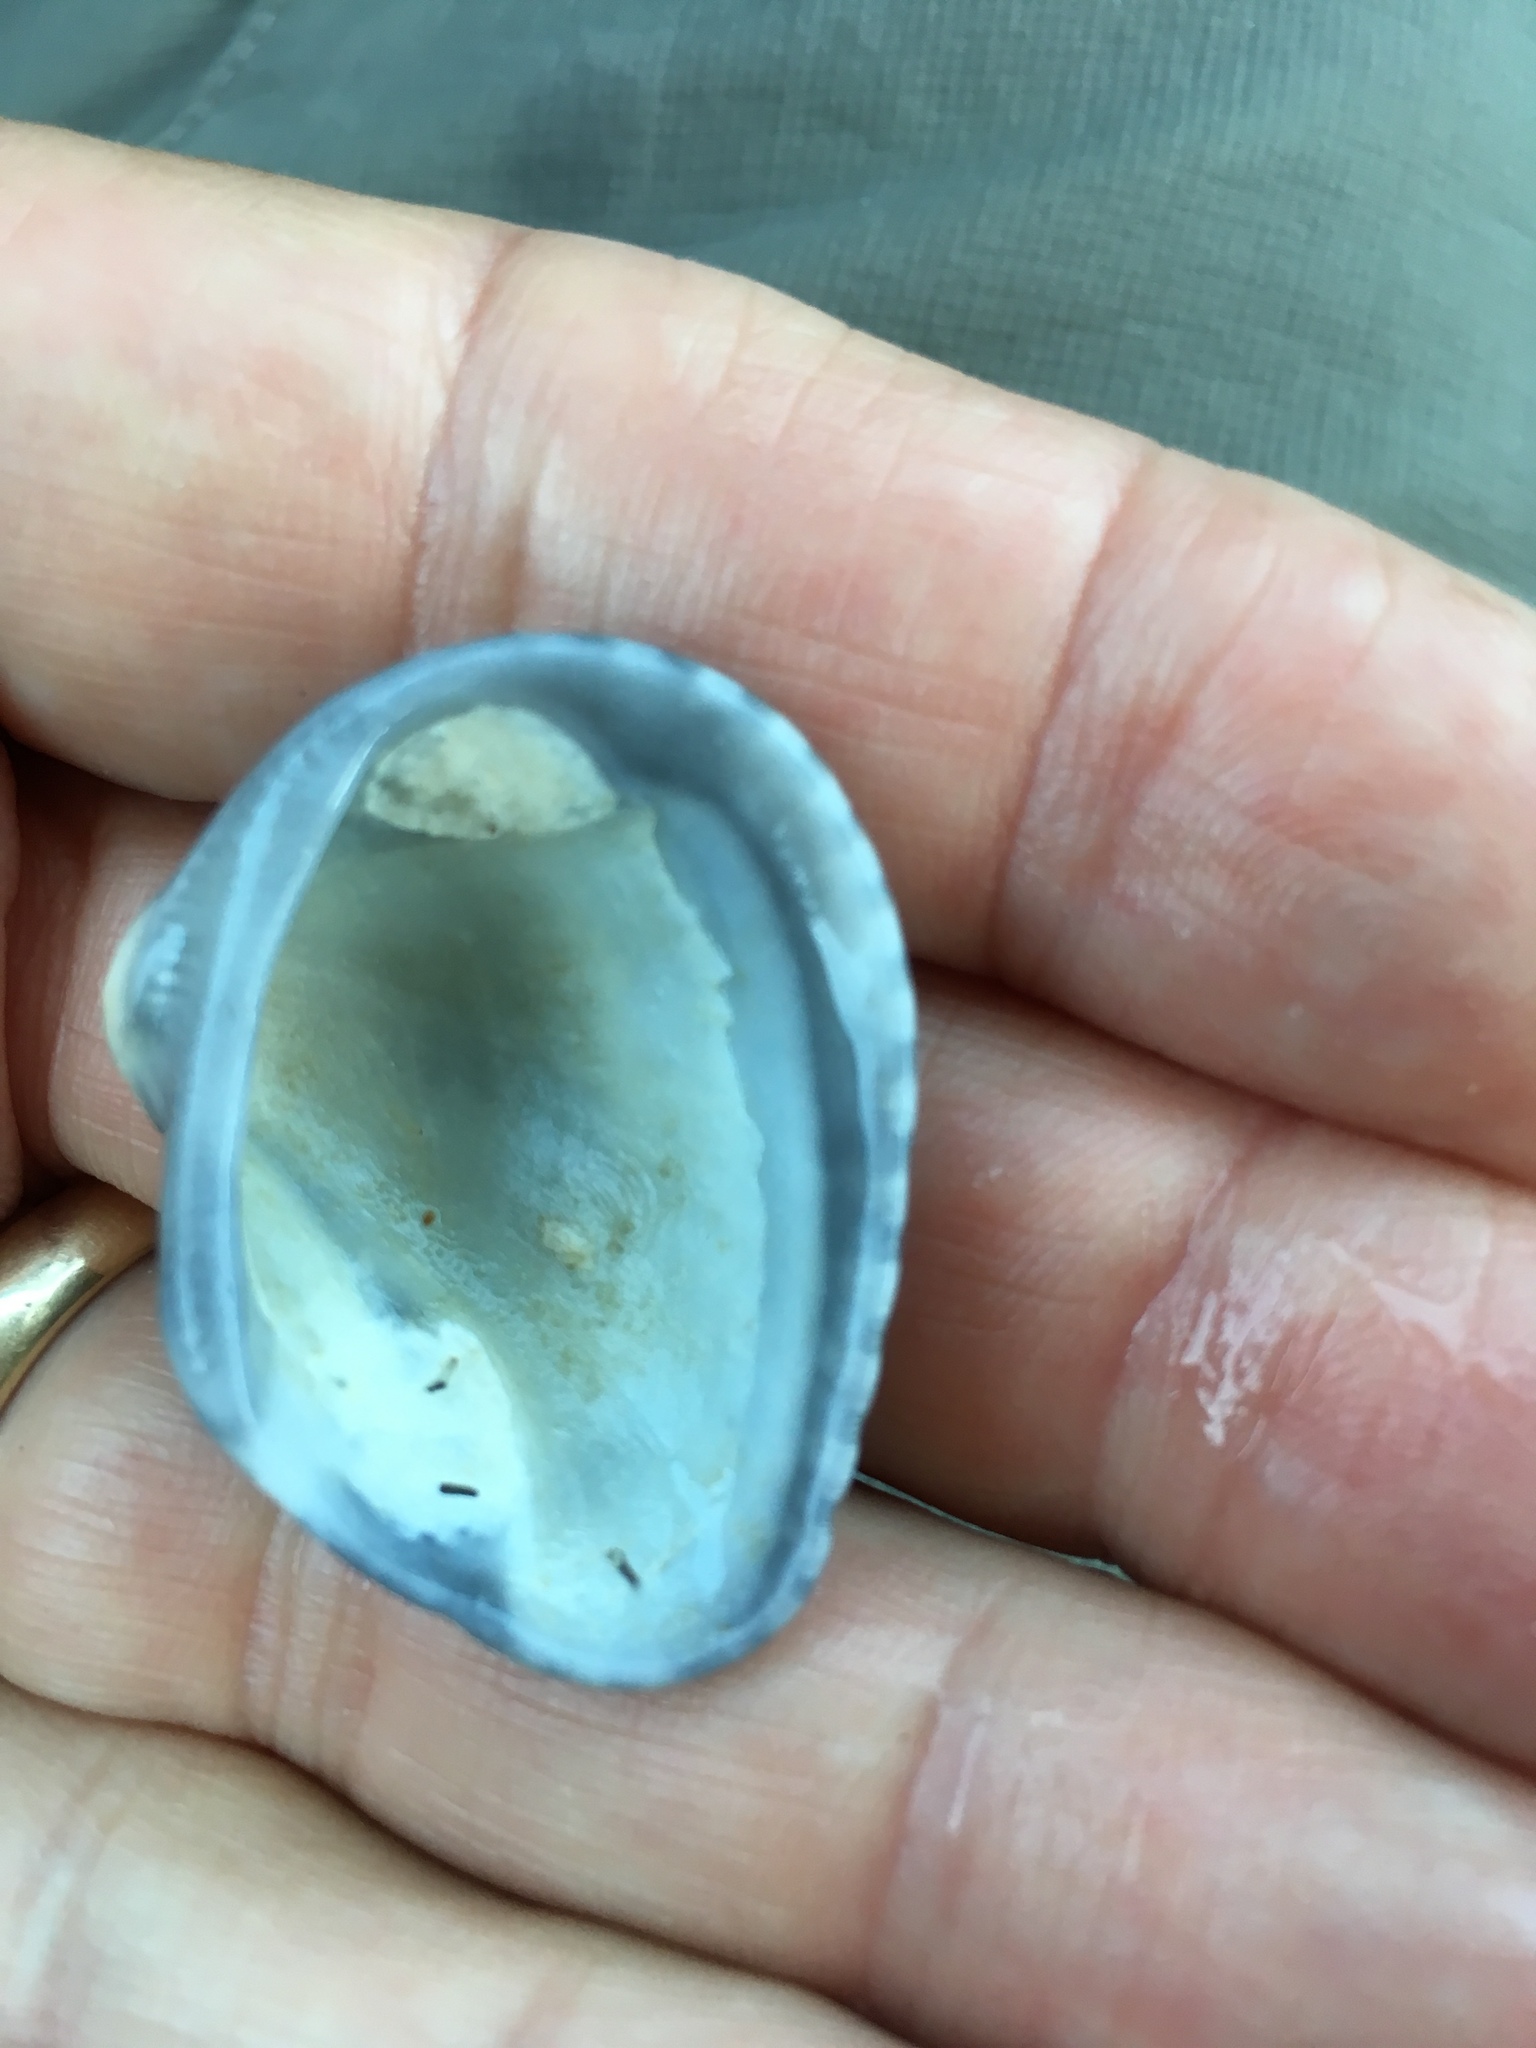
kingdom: Animalia
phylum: Mollusca
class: Bivalvia
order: Arcida
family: Noetiidae
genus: Noetia
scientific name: Noetia ponderosa
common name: Ponderous ark
